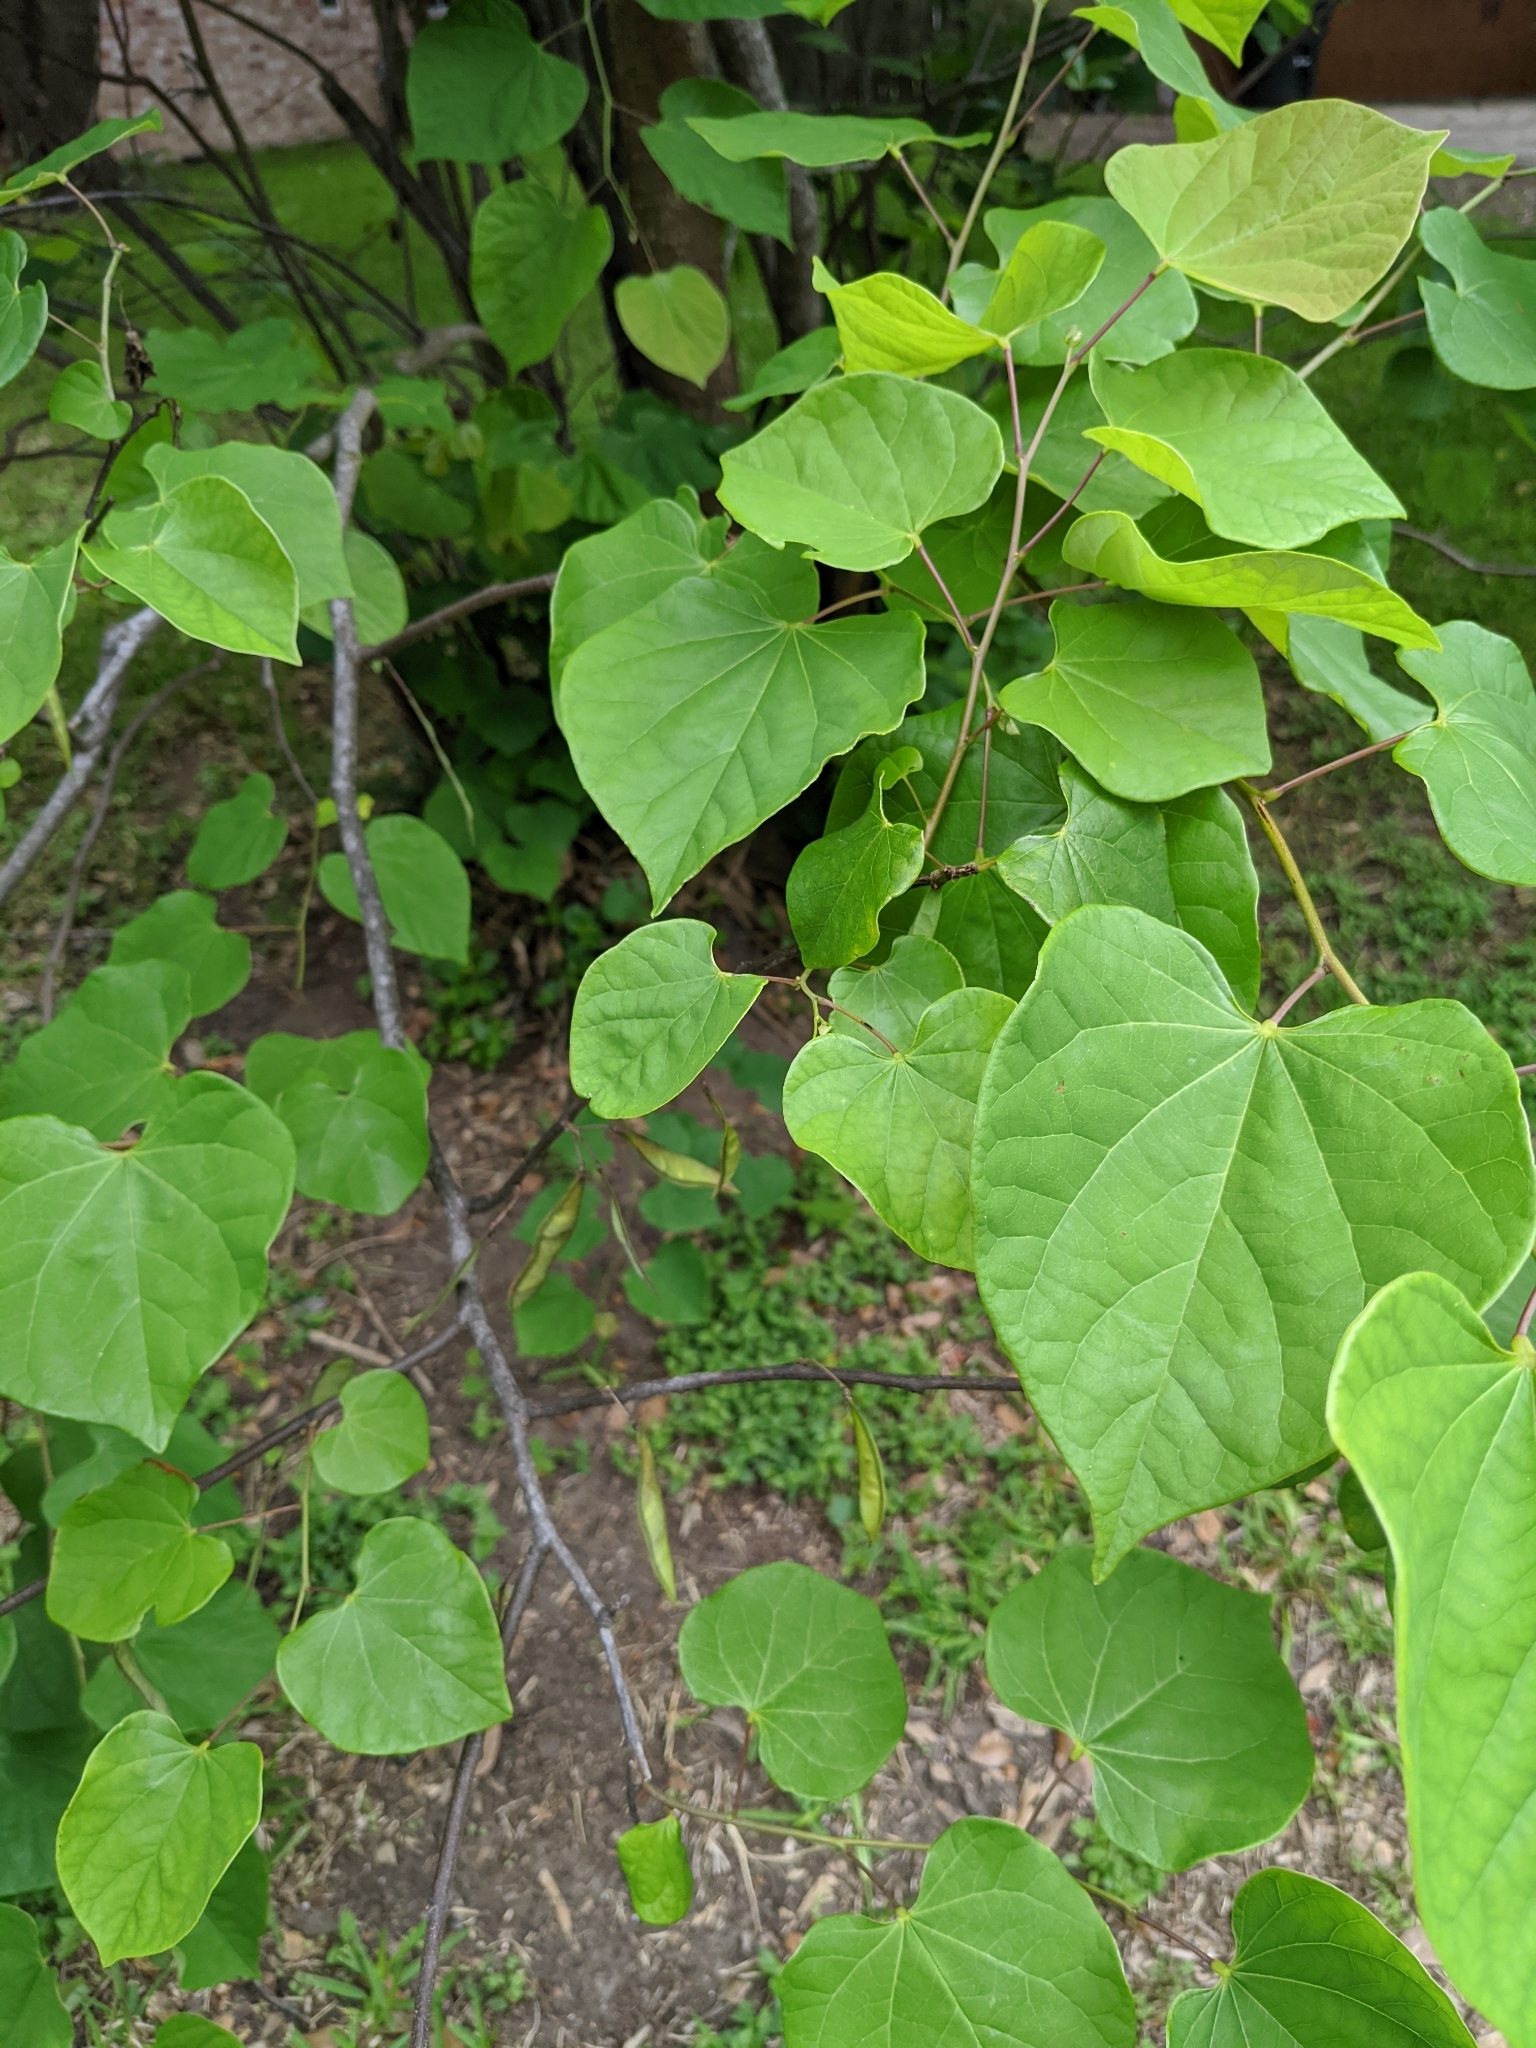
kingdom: Plantae
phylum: Tracheophyta
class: Magnoliopsida
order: Fabales
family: Fabaceae
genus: Cercis
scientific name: Cercis canadensis
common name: Eastern redbud
